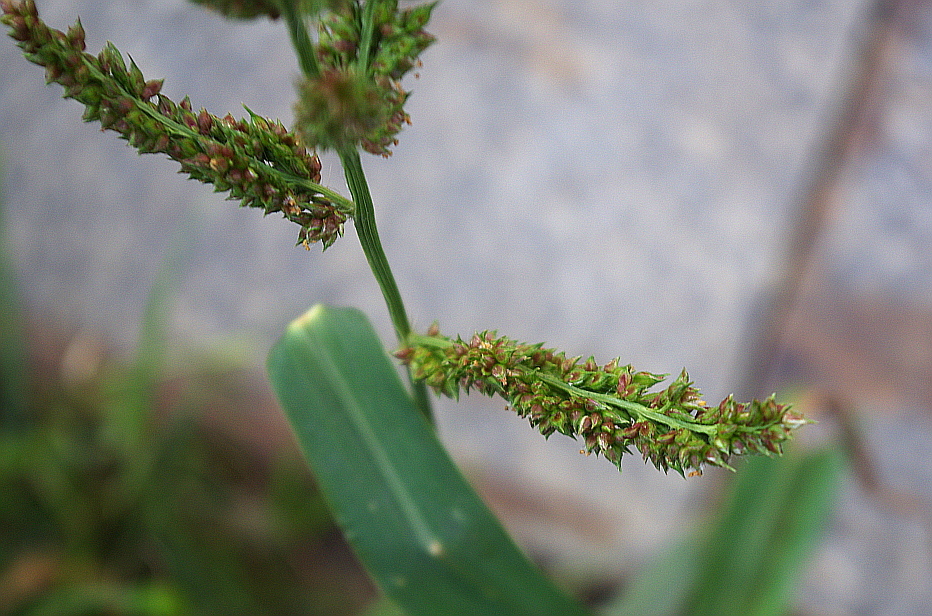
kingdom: Plantae
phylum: Tracheophyta
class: Liliopsida
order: Poales
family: Poaceae
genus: Echinochloa
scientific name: Echinochloa crus-galli
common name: Cockspur
